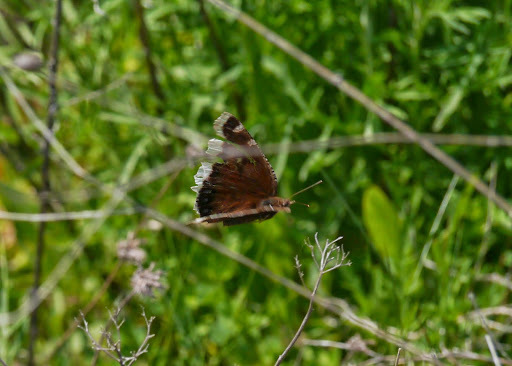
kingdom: Animalia
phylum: Arthropoda
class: Insecta
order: Lepidoptera
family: Nymphalidae
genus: Nymphalis
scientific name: Nymphalis antiopa
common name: Camberwell beauty
